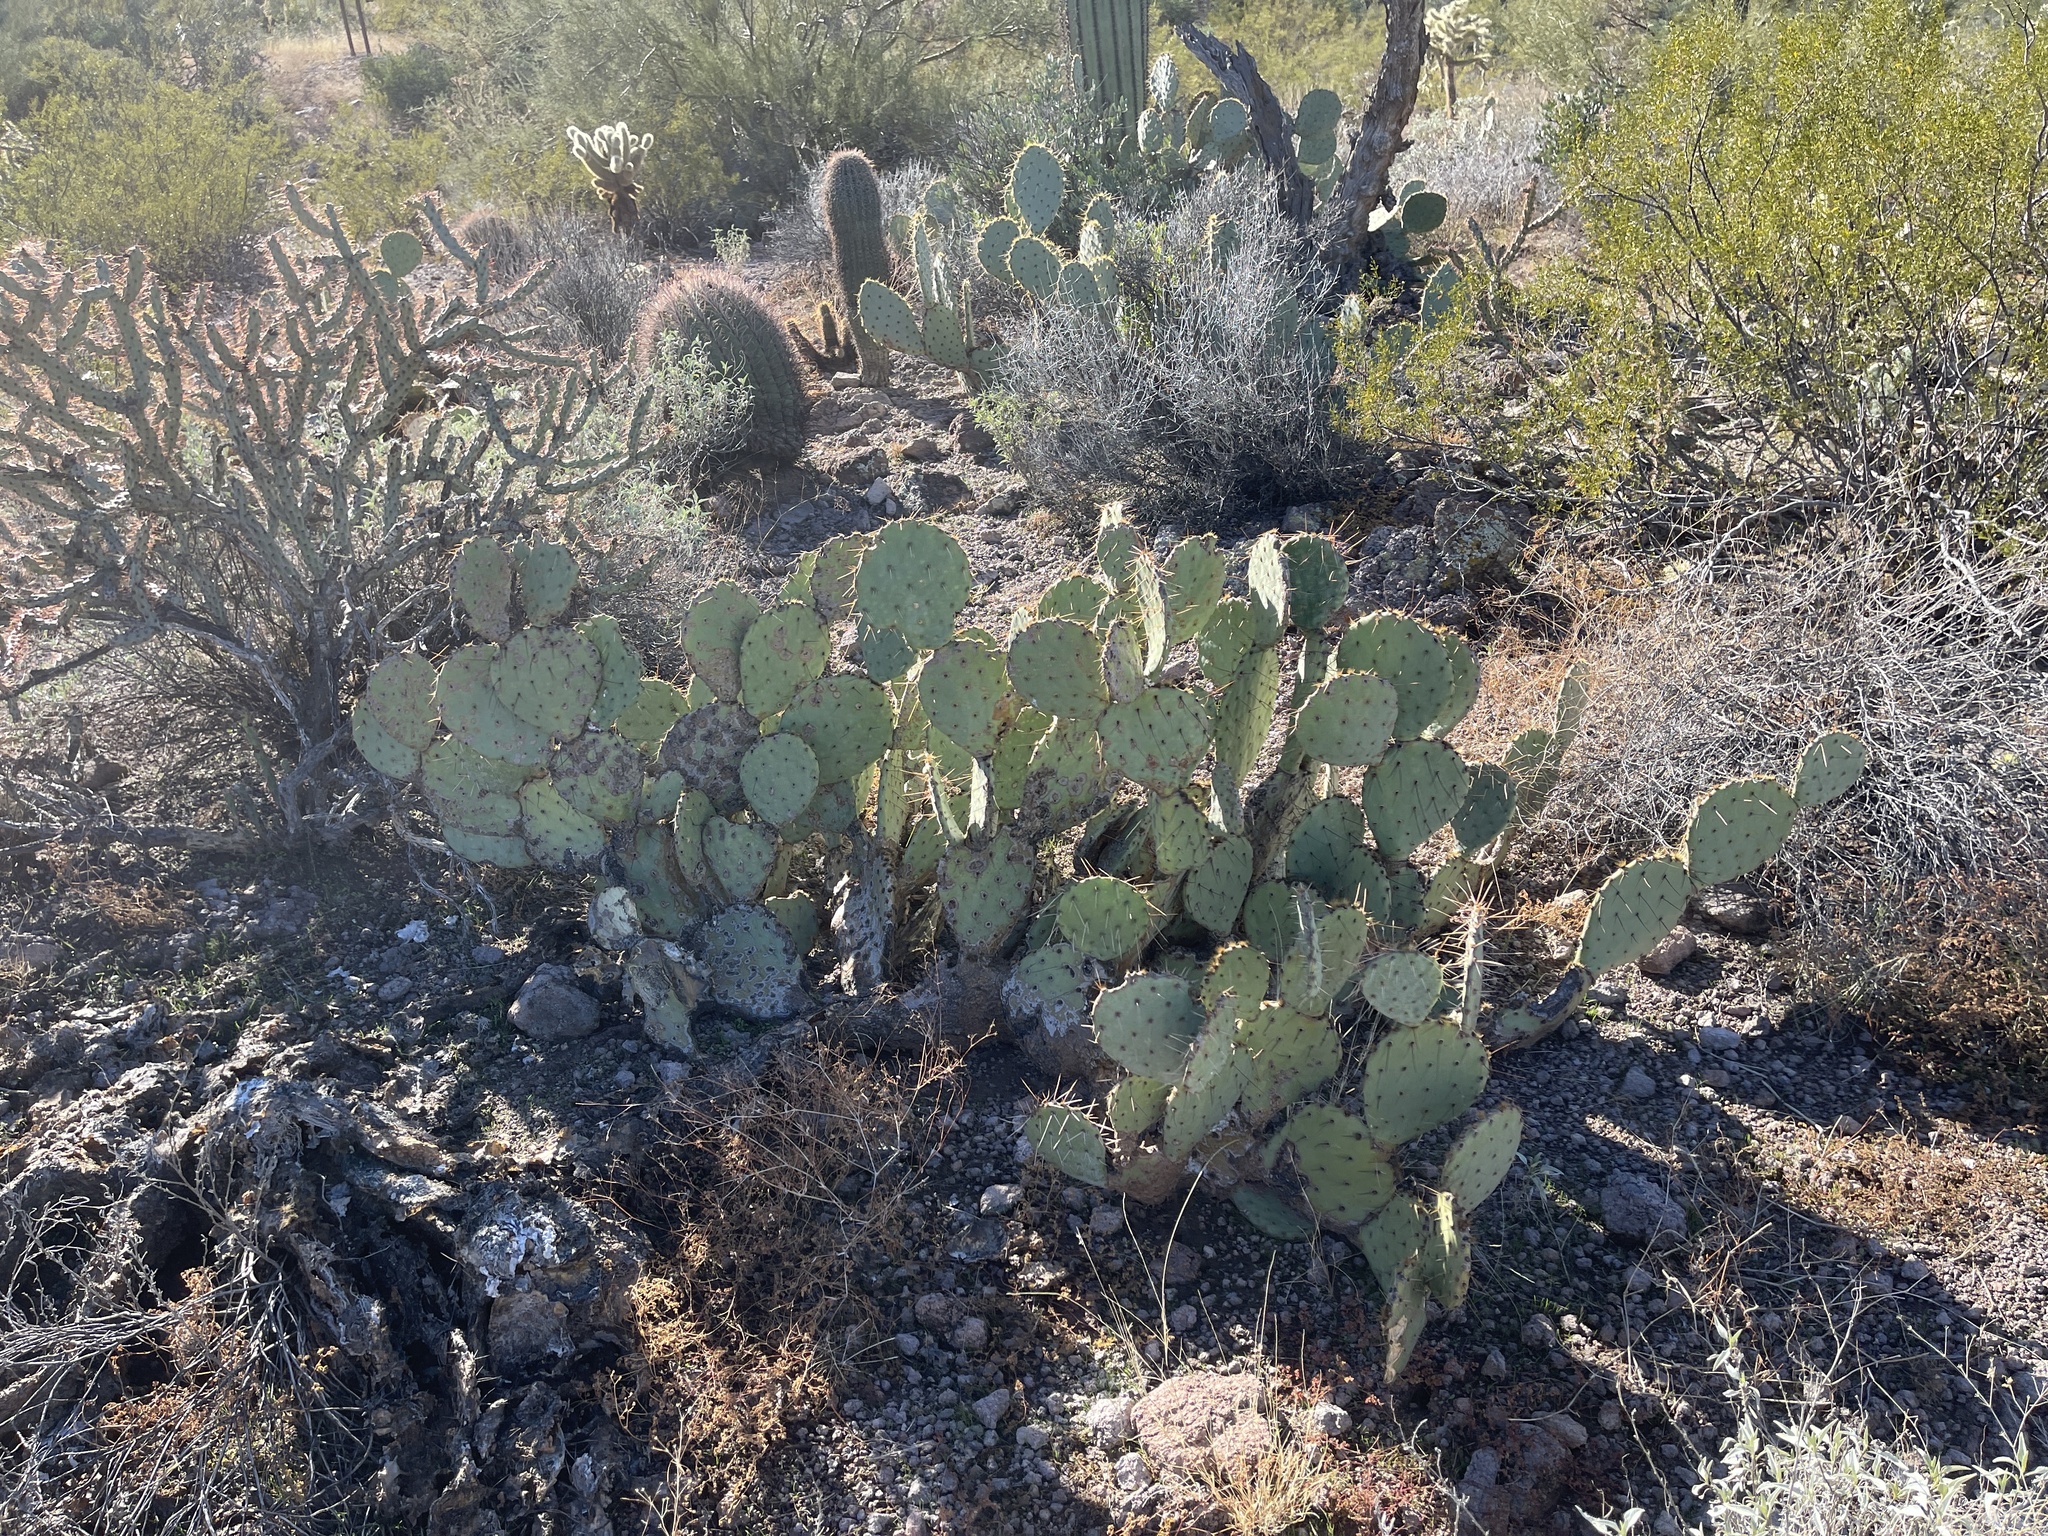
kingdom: Plantae
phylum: Tracheophyta
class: Magnoliopsida
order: Caryophyllales
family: Cactaceae
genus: Opuntia
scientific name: Opuntia engelmannii
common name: Cactus-apple
